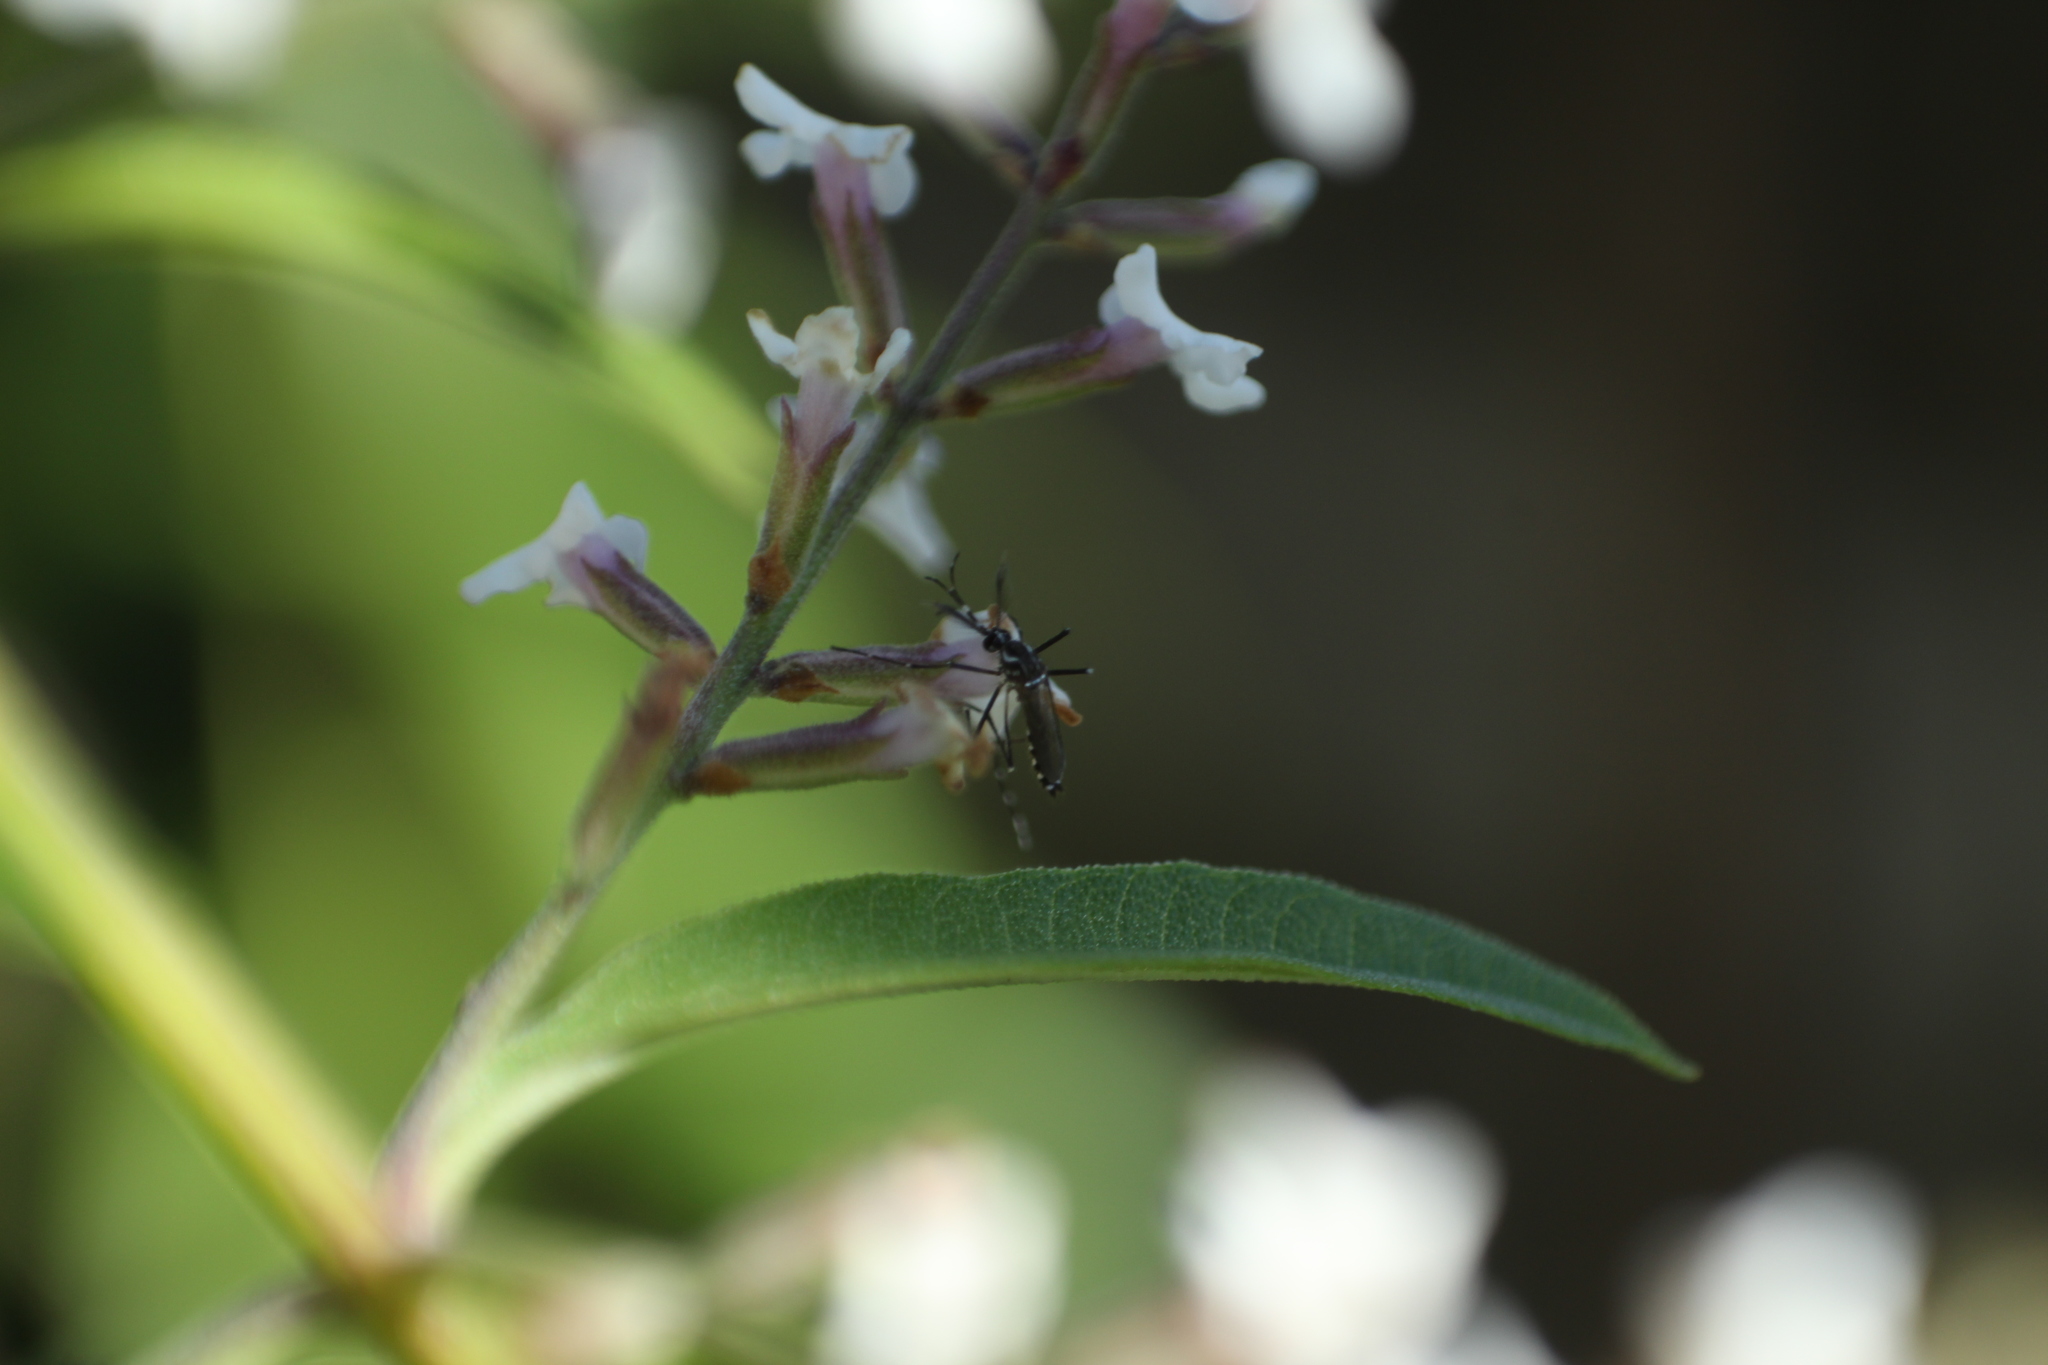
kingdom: Animalia
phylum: Arthropoda
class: Insecta
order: Diptera
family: Culicidae
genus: Aedes
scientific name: Aedes aegypti
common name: Yellow fever mosquito
